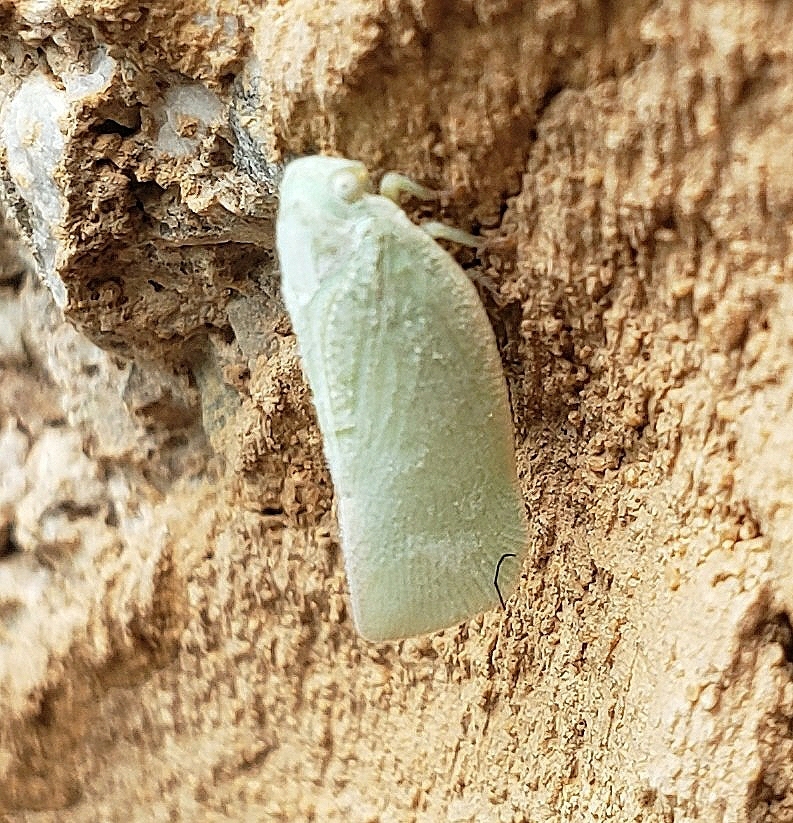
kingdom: Animalia
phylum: Arthropoda
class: Insecta
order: Hemiptera
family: Flatidae
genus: Flatormenis
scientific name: Flatormenis proxima
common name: Northern flatid planthopper
